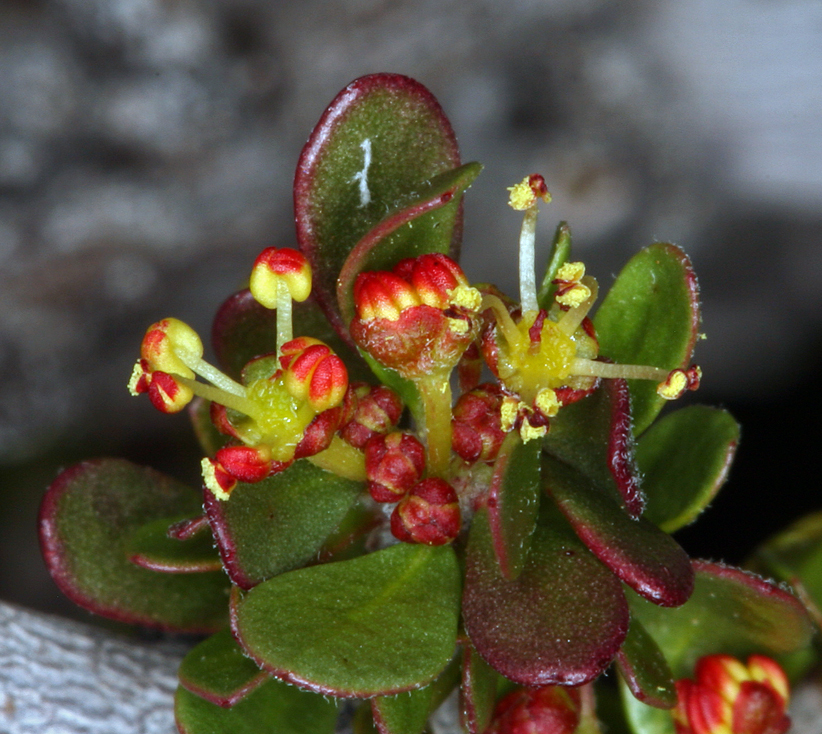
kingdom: Plantae
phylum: Tracheophyta
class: Magnoliopsida
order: Malpighiales
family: Picrodendraceae
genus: Tetracoccus
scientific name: Tetracoccus hallii
